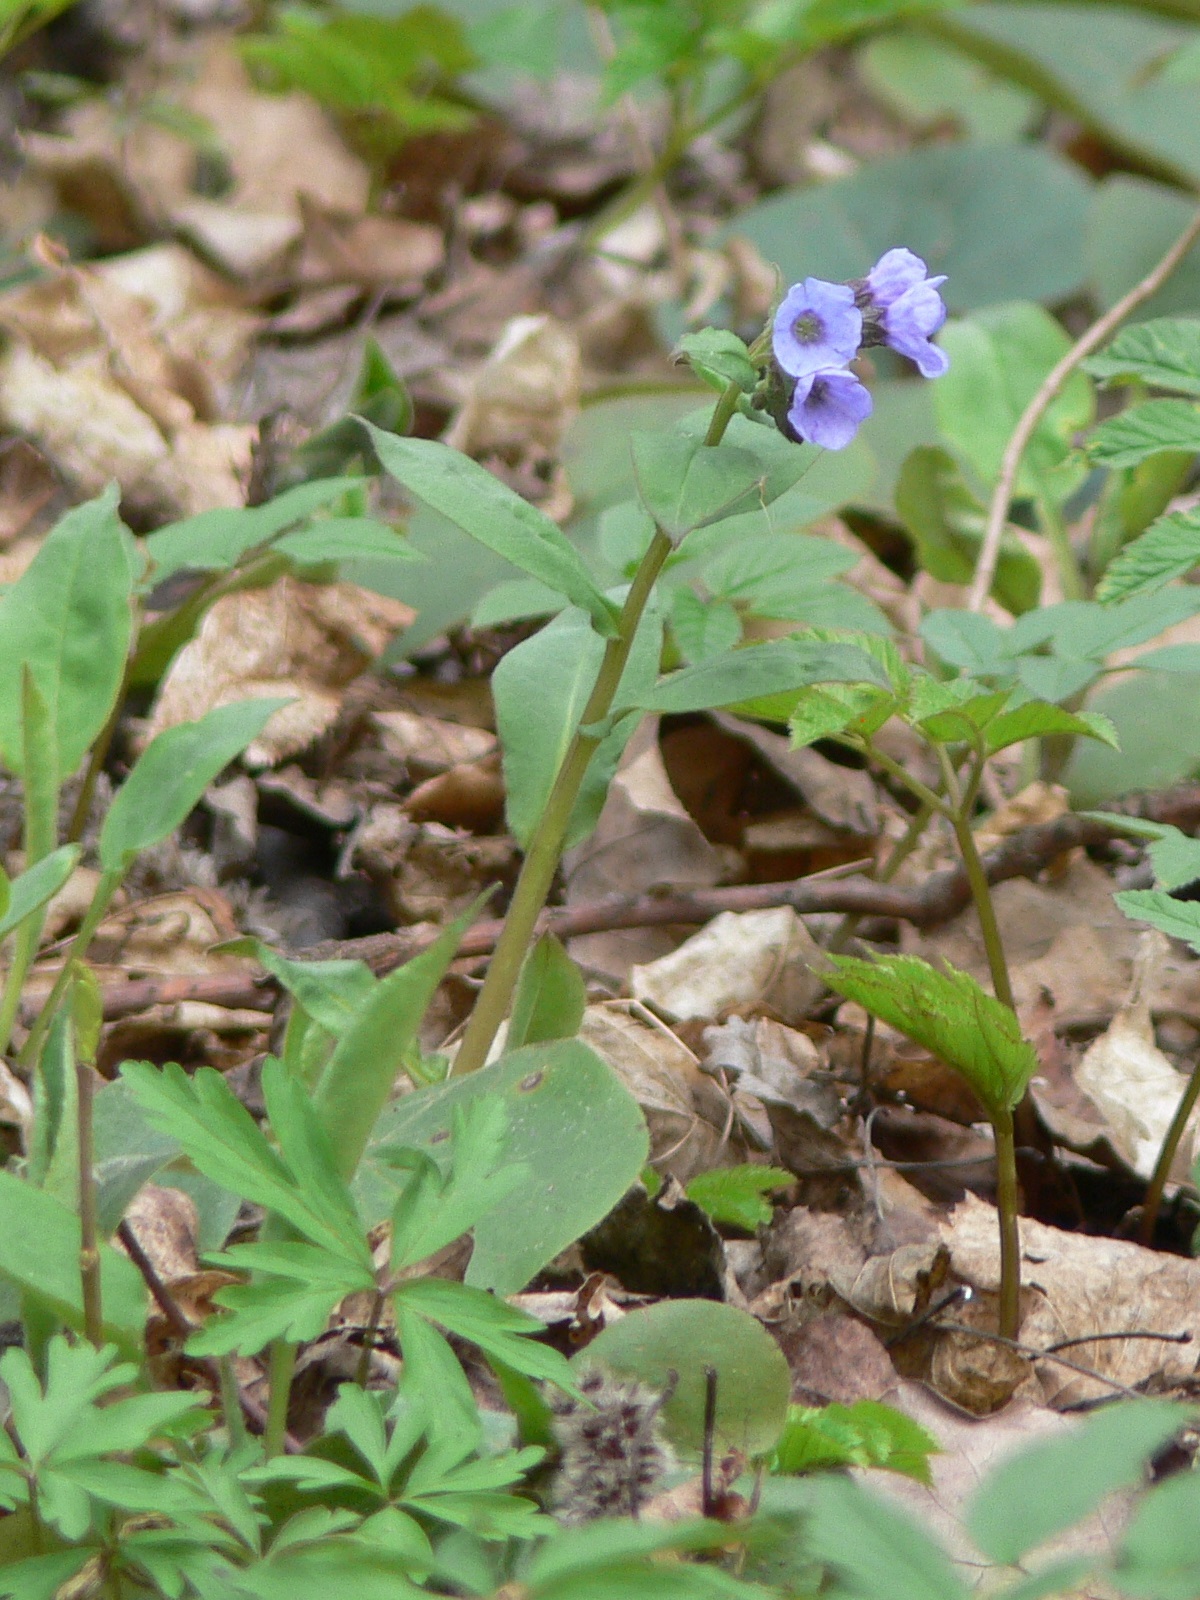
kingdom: Plantae
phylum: Tracheophyta
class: Magnoliopsida
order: Boraginales
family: Boraginaceae
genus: Pulmonaria
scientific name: Pulmonaria obscura
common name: Suffolk lungwort
